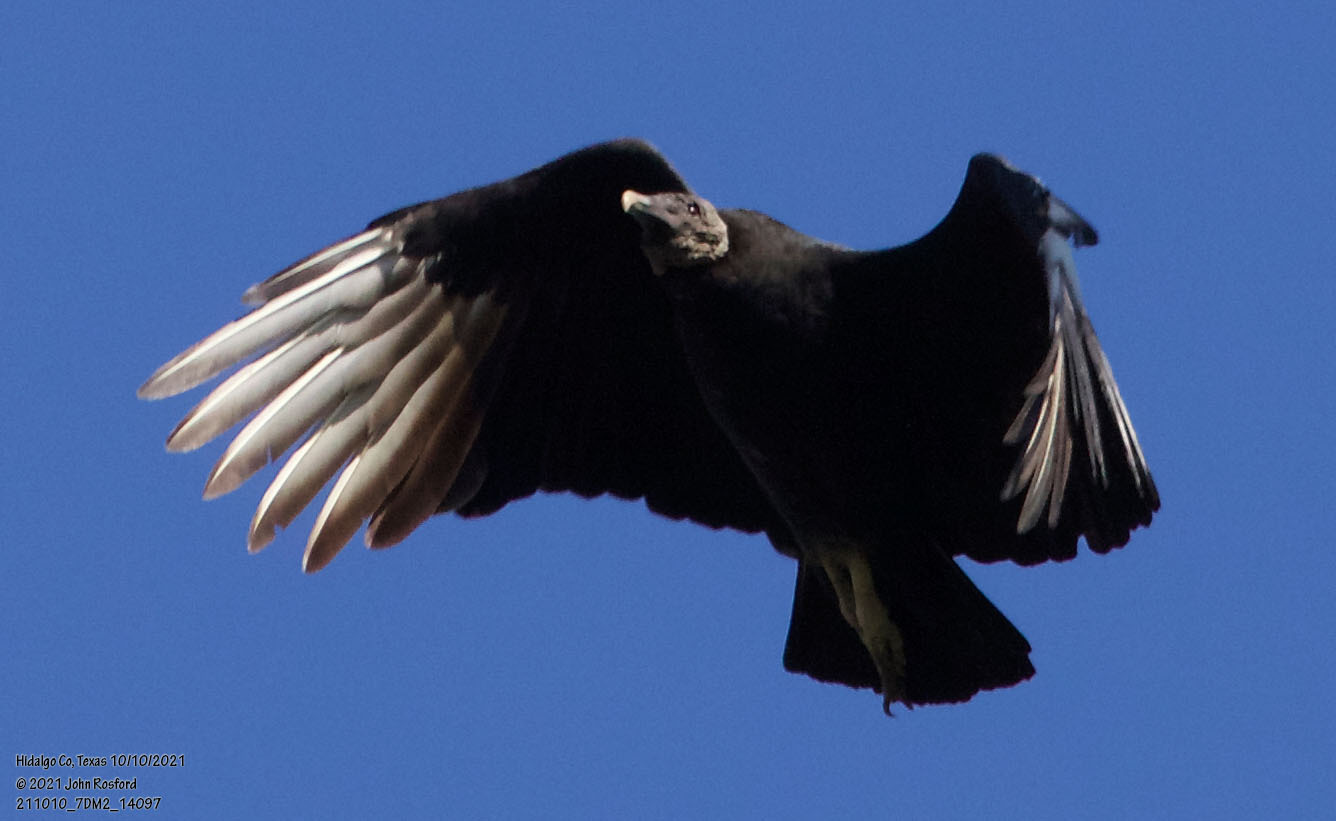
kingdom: Animalia
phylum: Chordata
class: Aves
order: Accipitriformes
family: Cathartidae
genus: Coragyps
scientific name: Coragyps atratus
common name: Black vulture
